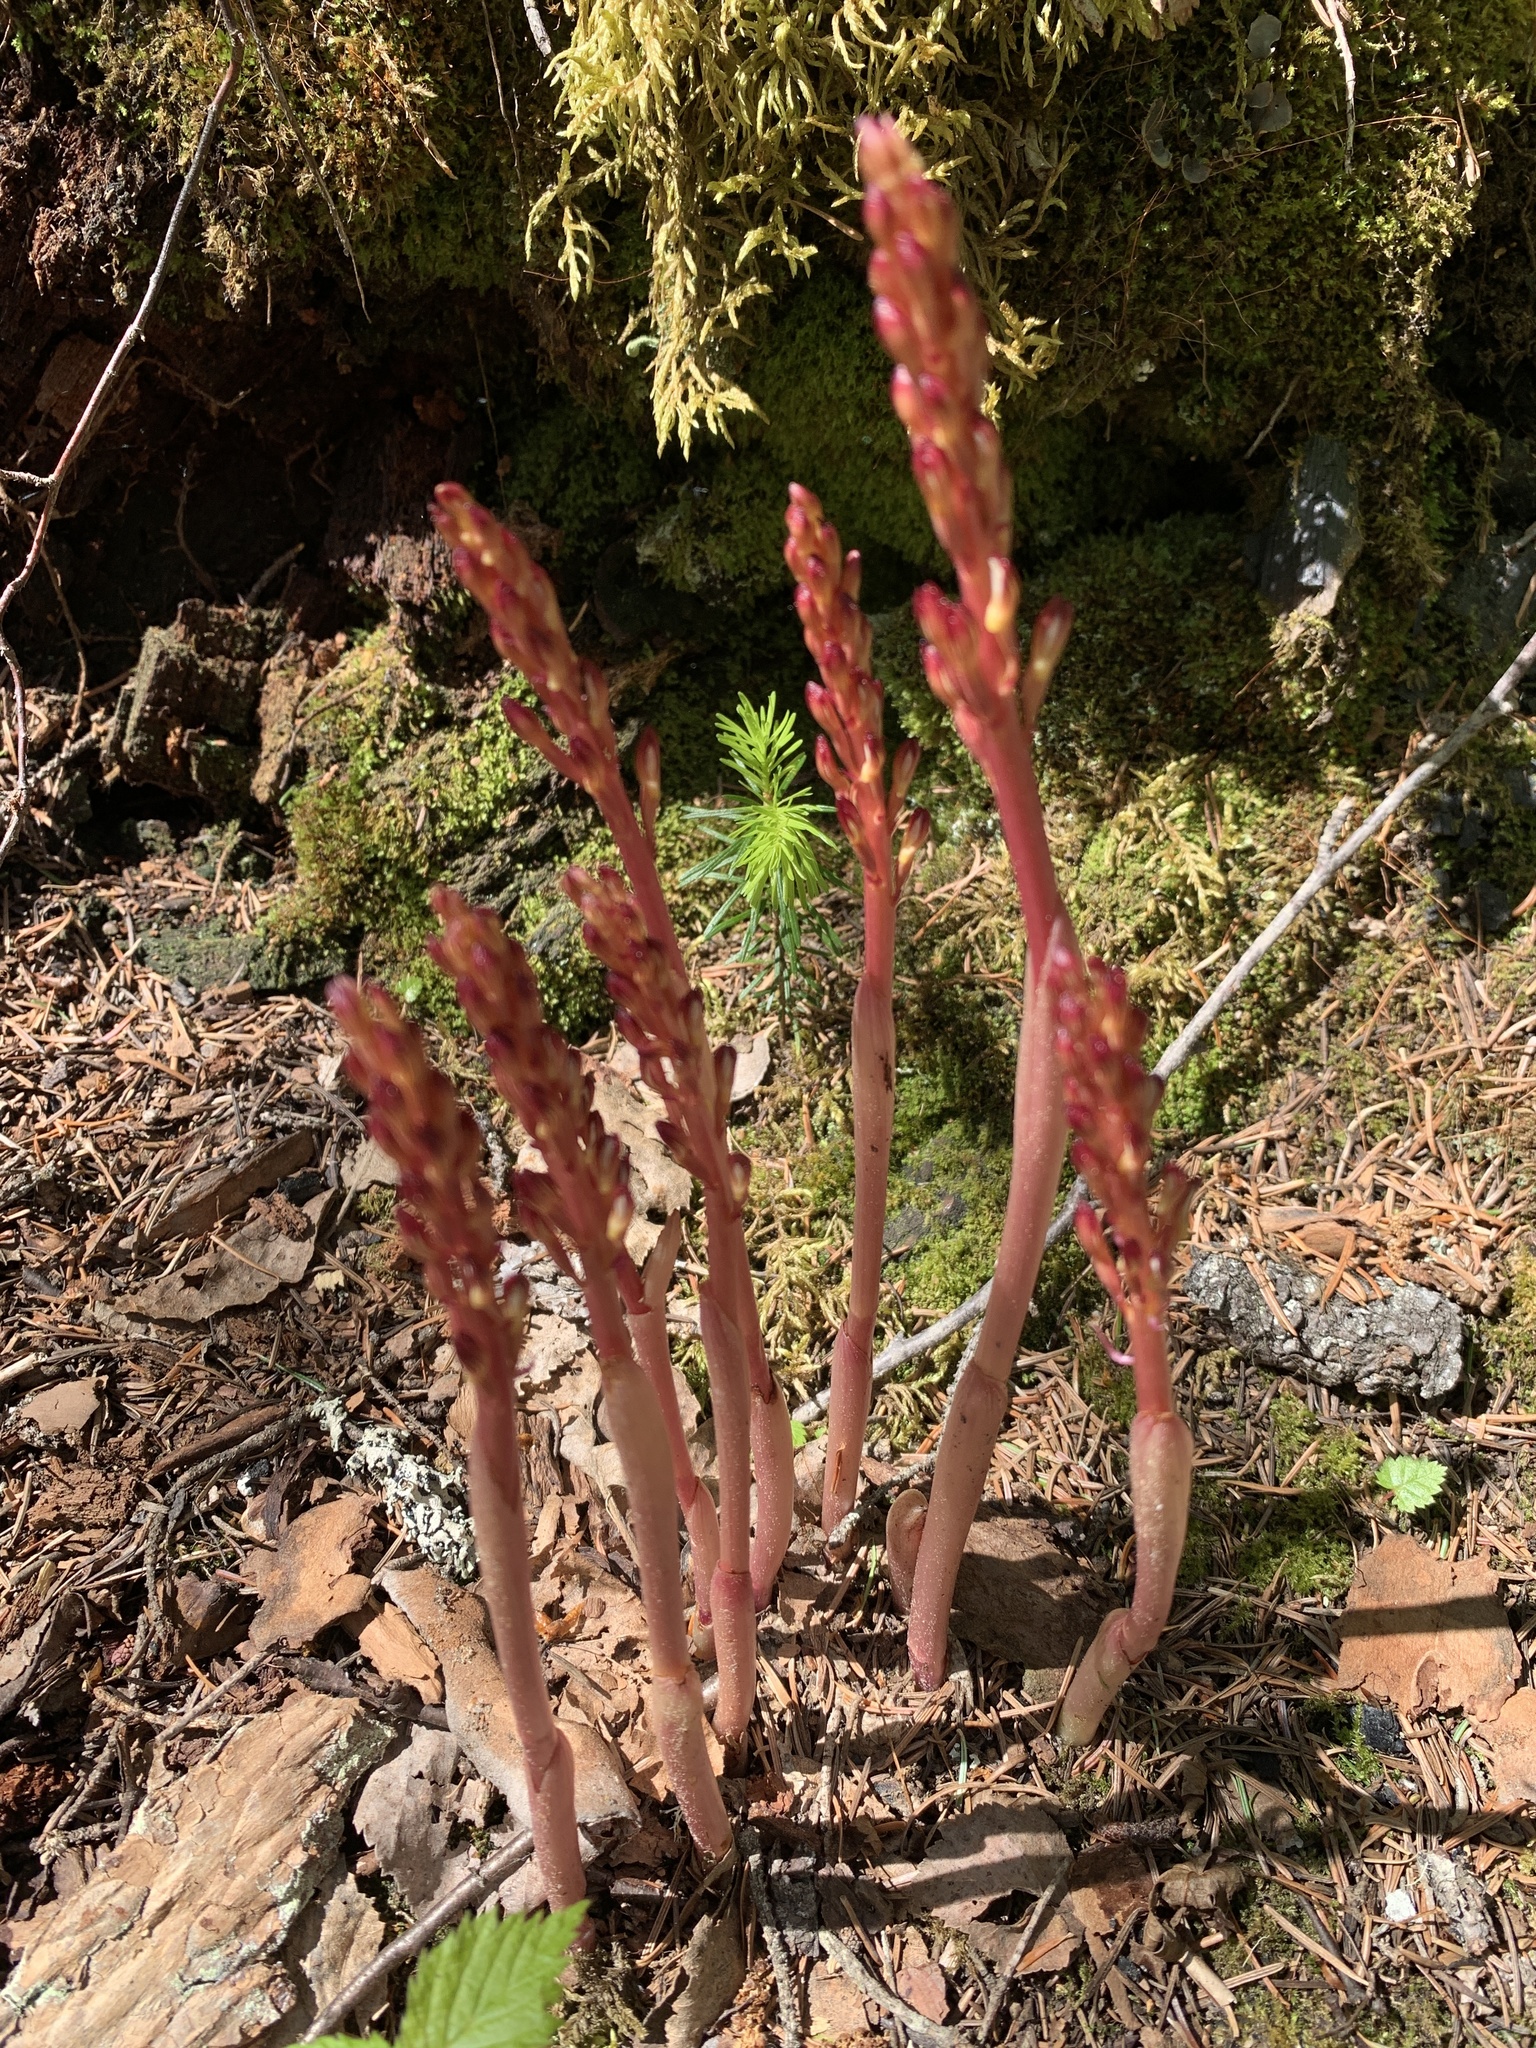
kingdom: Plantae
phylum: Tracheophyta
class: Liliopsida
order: Asparagales
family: Orchidaceae
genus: Corallorhiza
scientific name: Corallorhiza maculata
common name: Spotted coralroot
